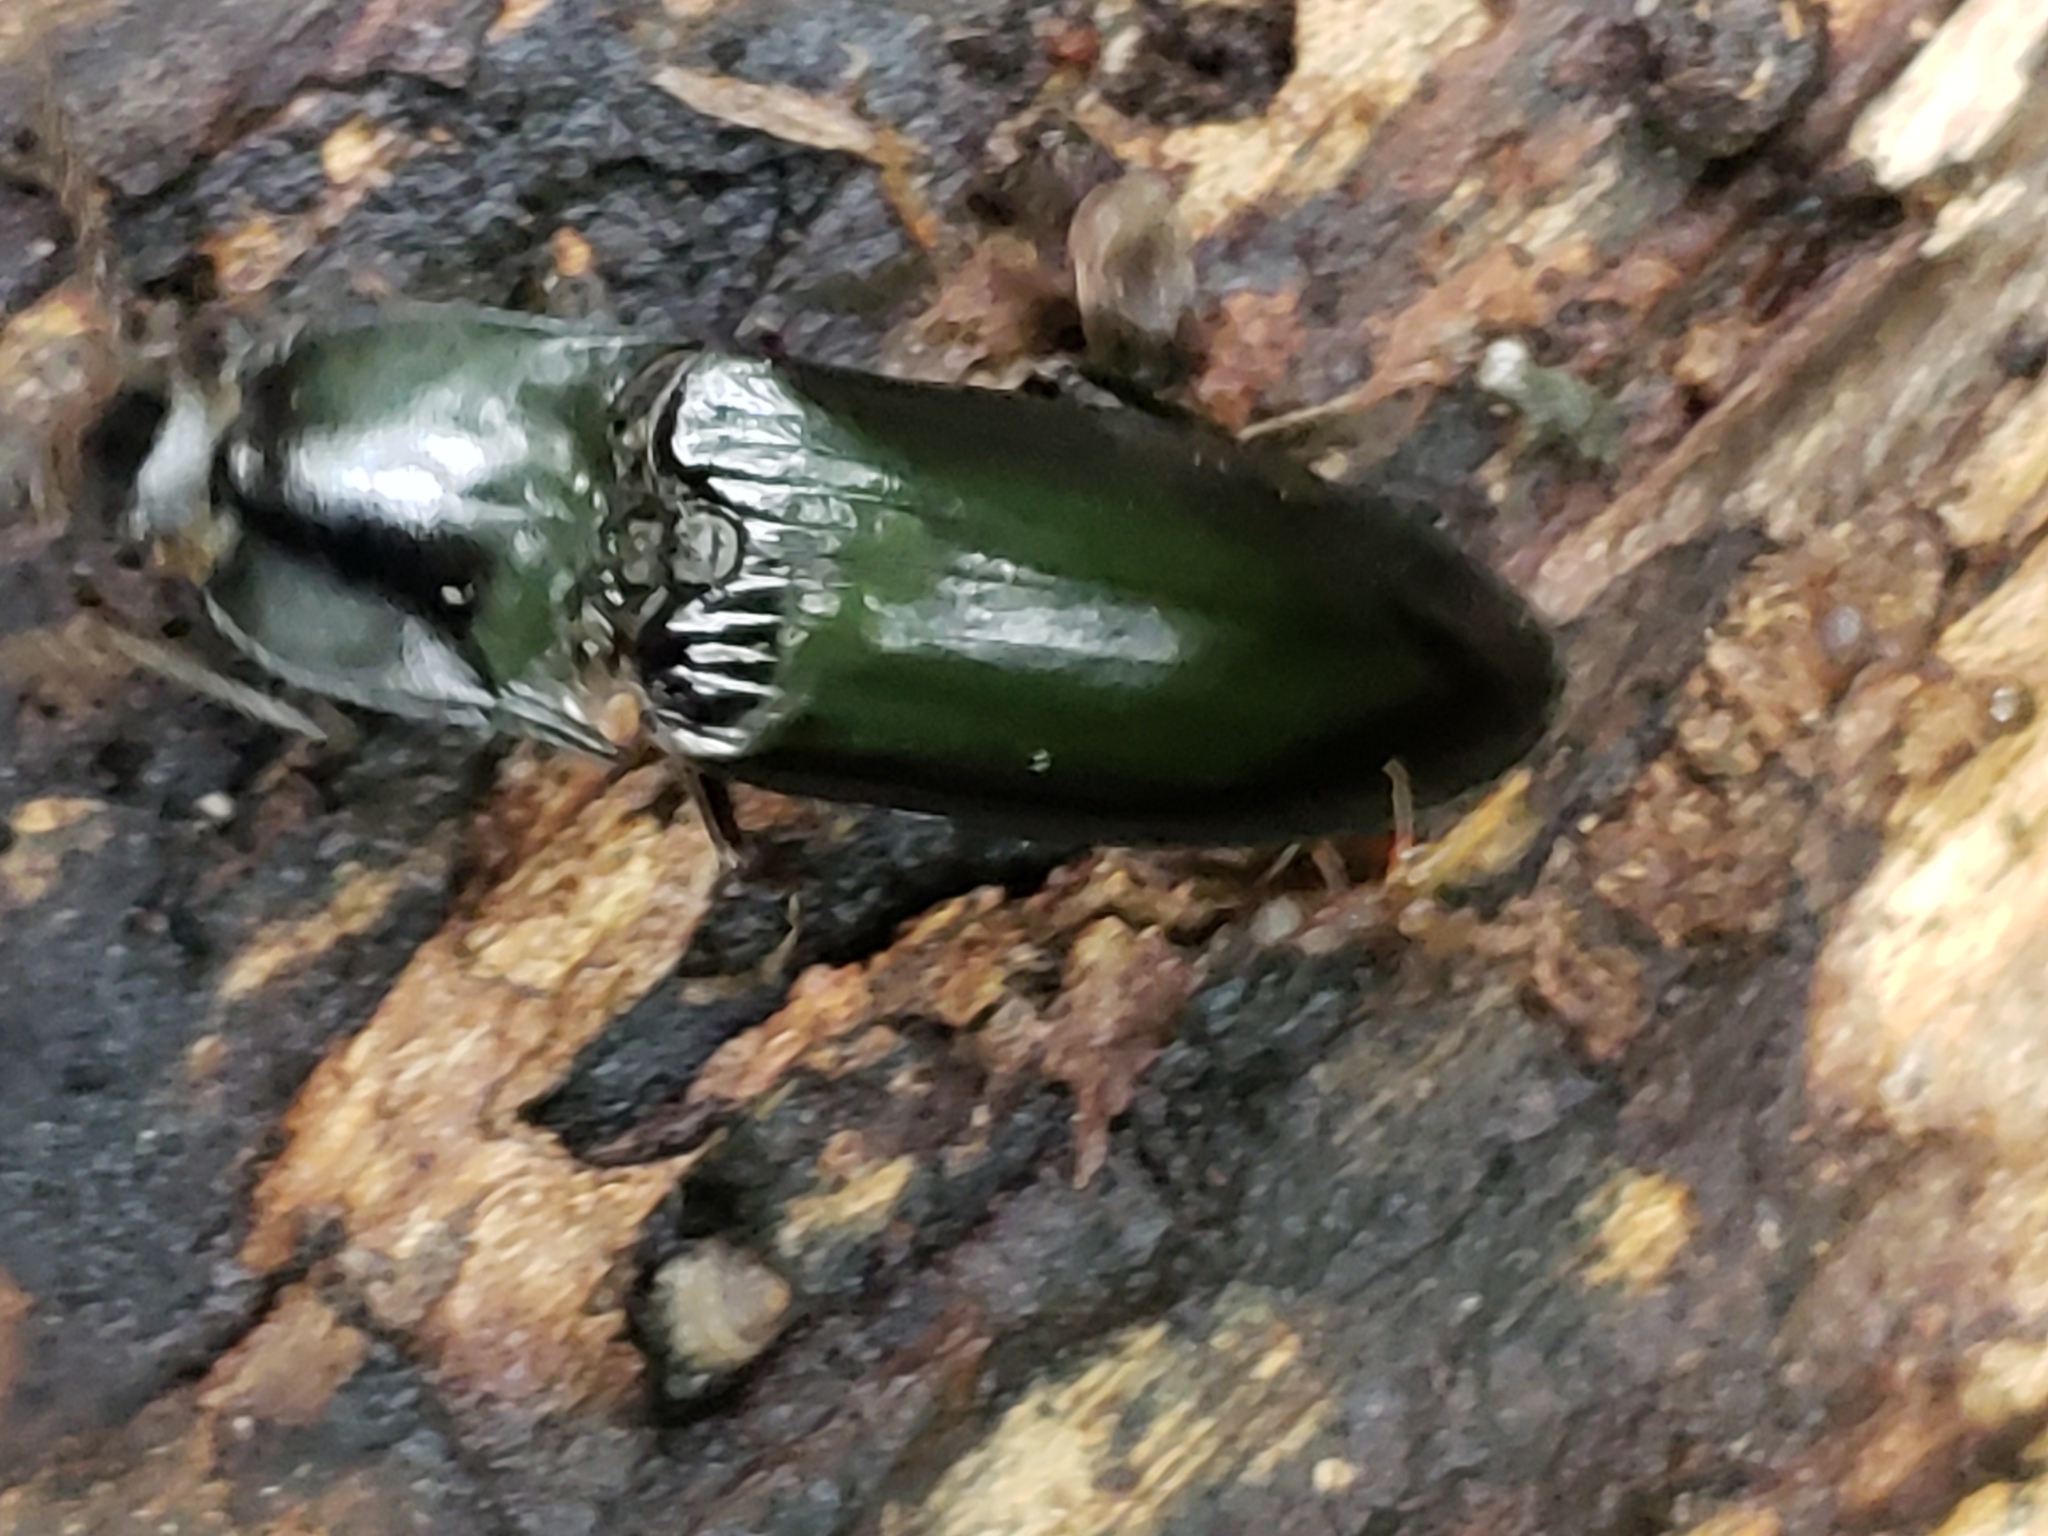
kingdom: Animalia
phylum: Arthropoda
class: Insecta
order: Coleoptera
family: Elateridae
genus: Melanactes
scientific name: Melanactes piceus
